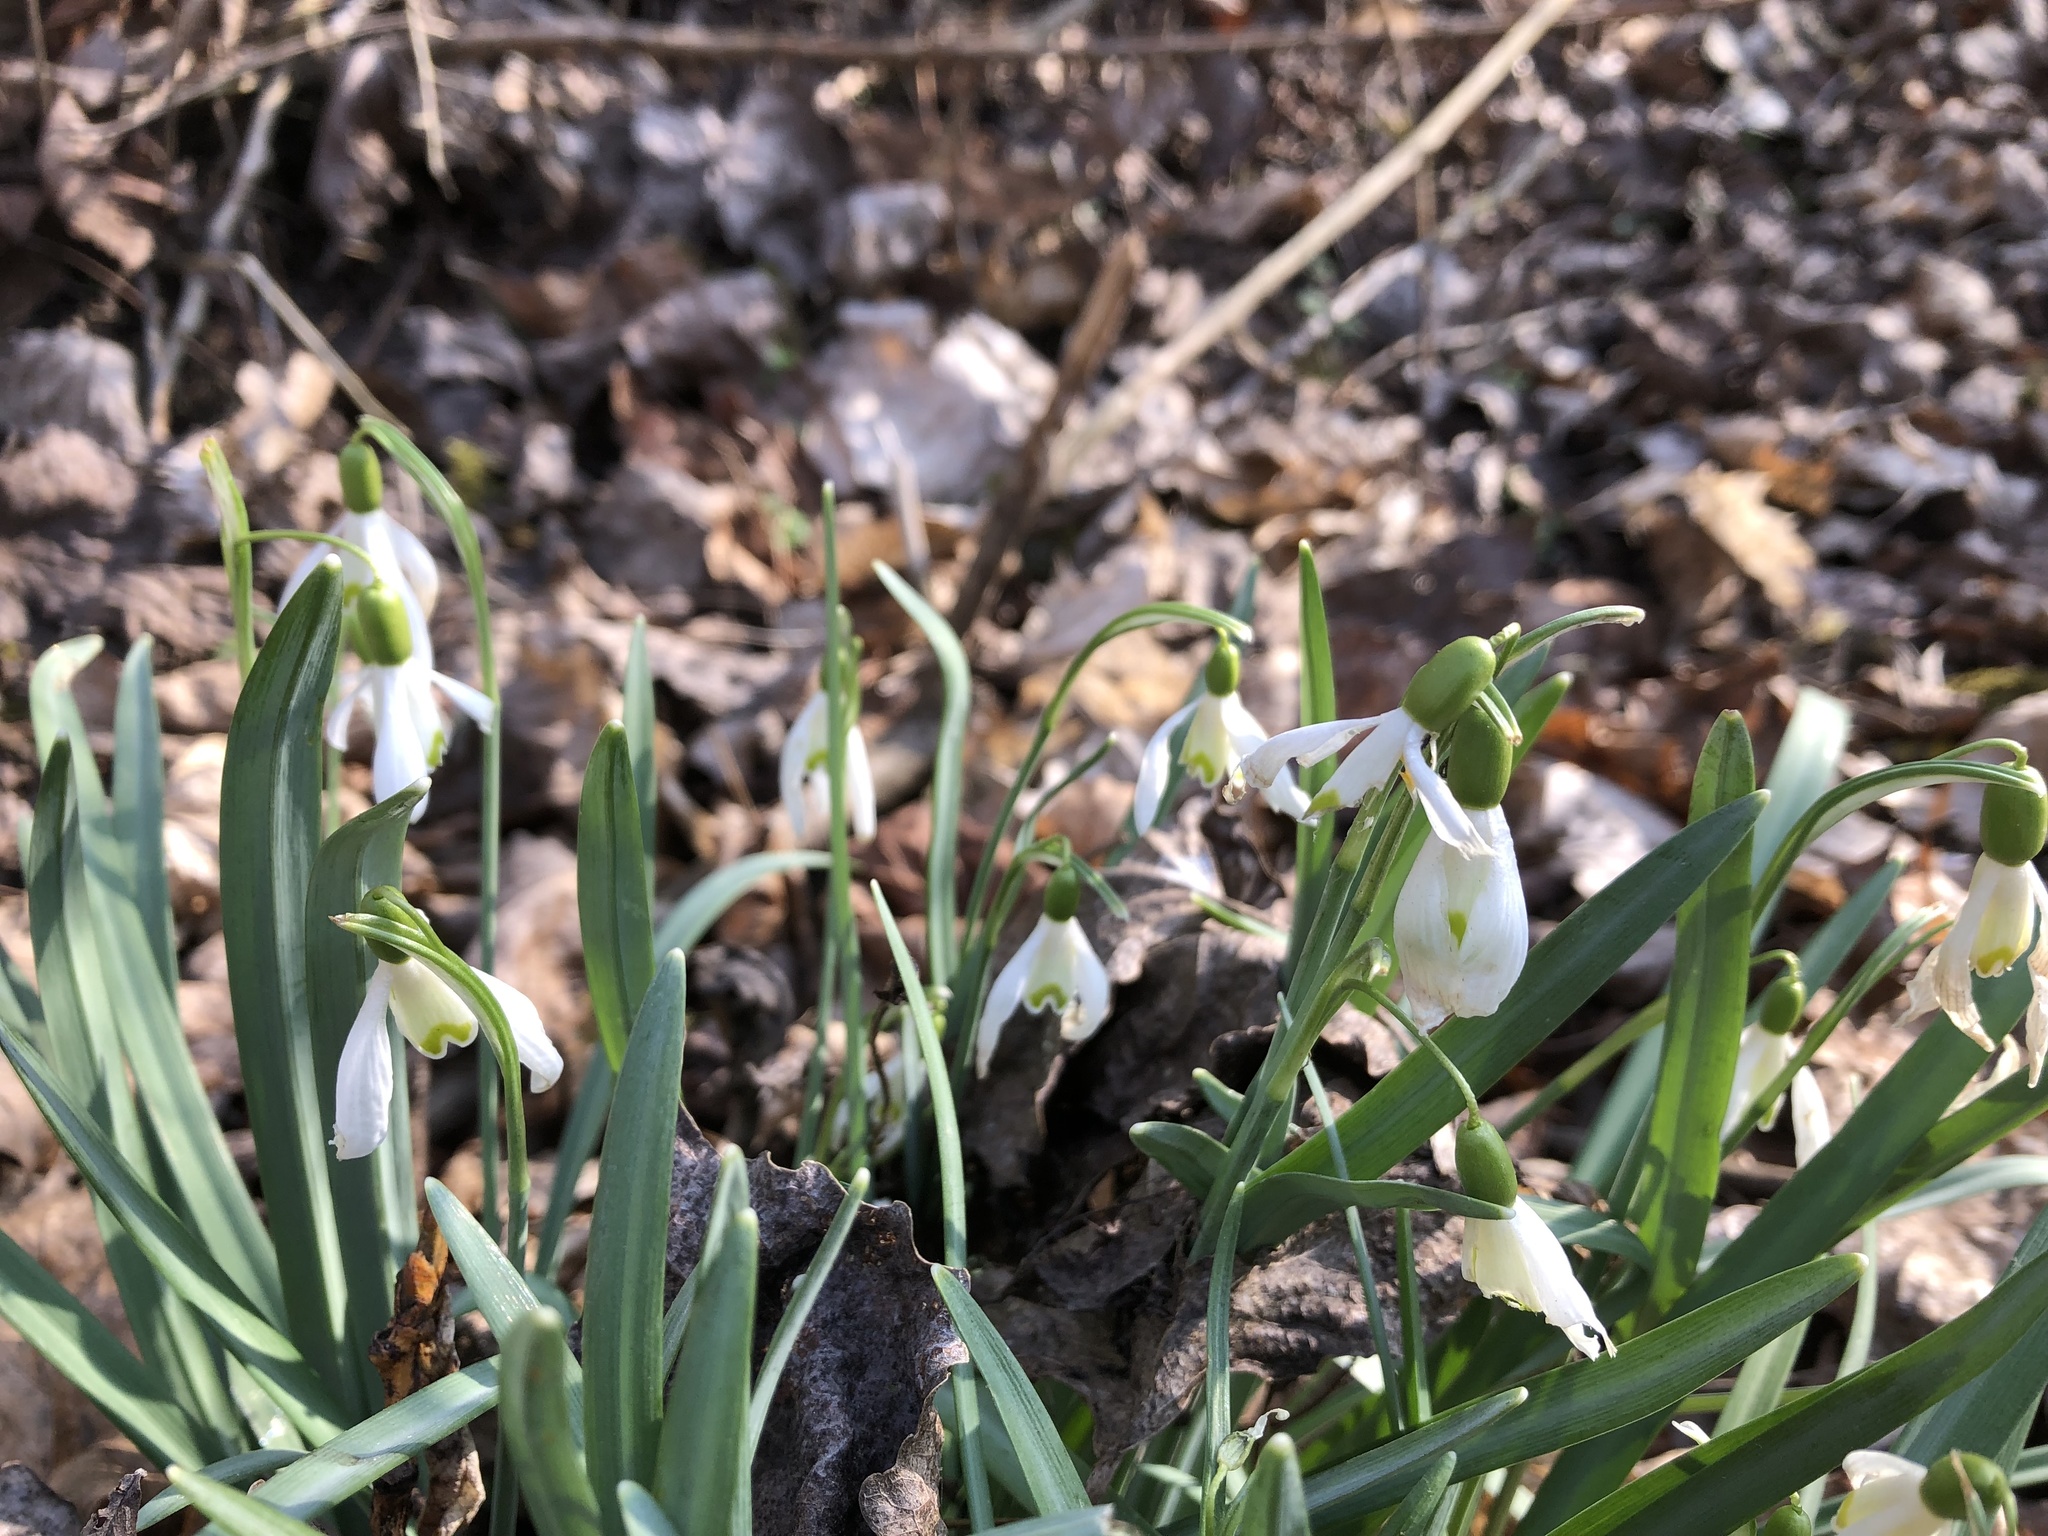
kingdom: Plantae
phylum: Tracheophyta
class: Liliopsida
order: Asparagales
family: Amaryllidaceae
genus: Galanthus
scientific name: Galanthus nivalis
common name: Snowdrop
